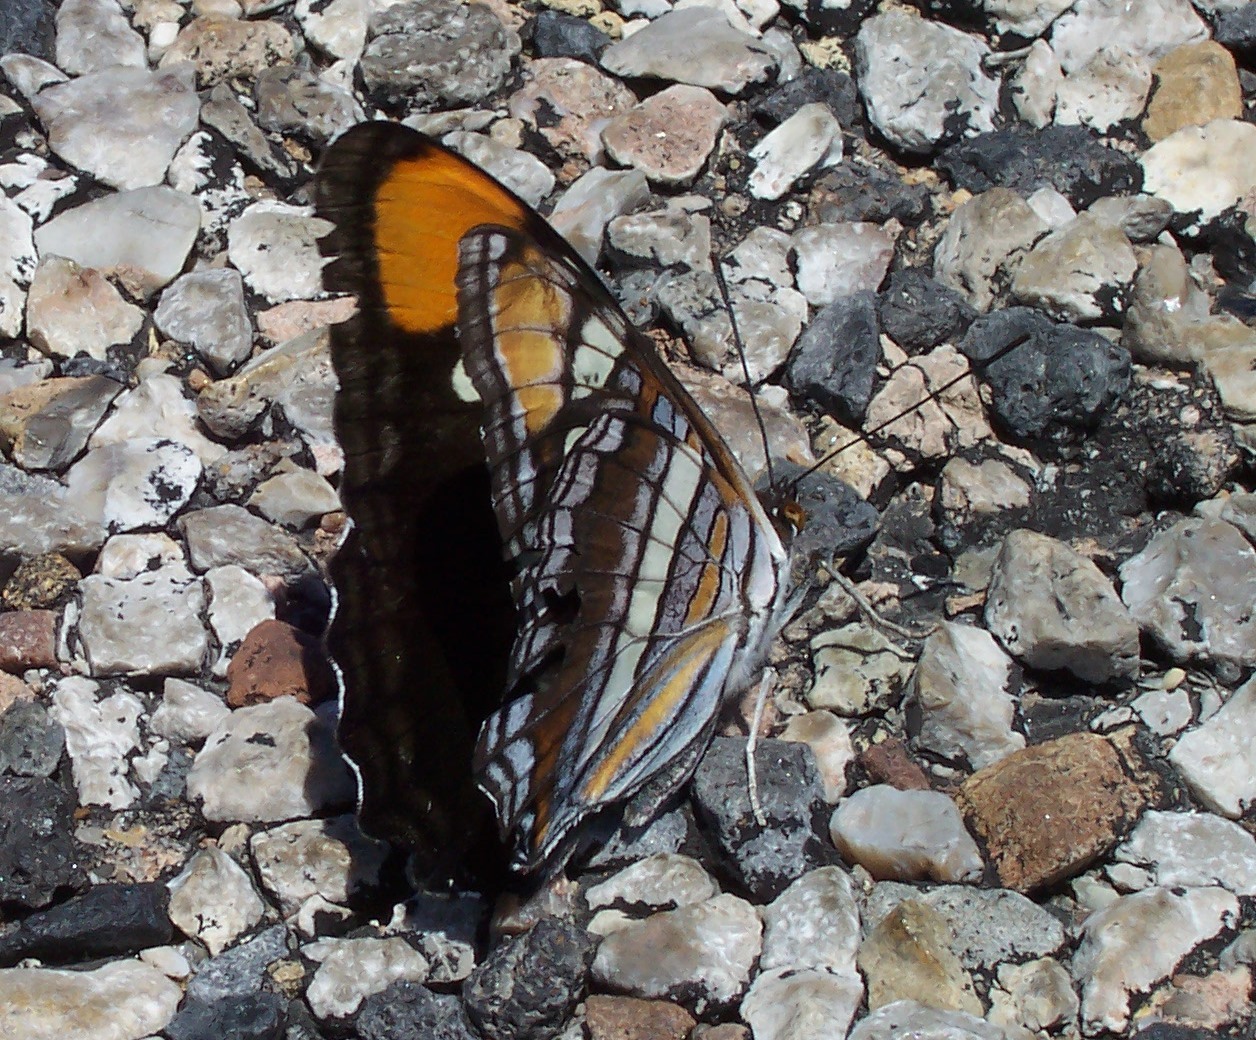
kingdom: Animalia
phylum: Arthropoda
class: Insecta
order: Lepidoptera
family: Nymphalidae
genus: Limenitis
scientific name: Limenitis bredowii
